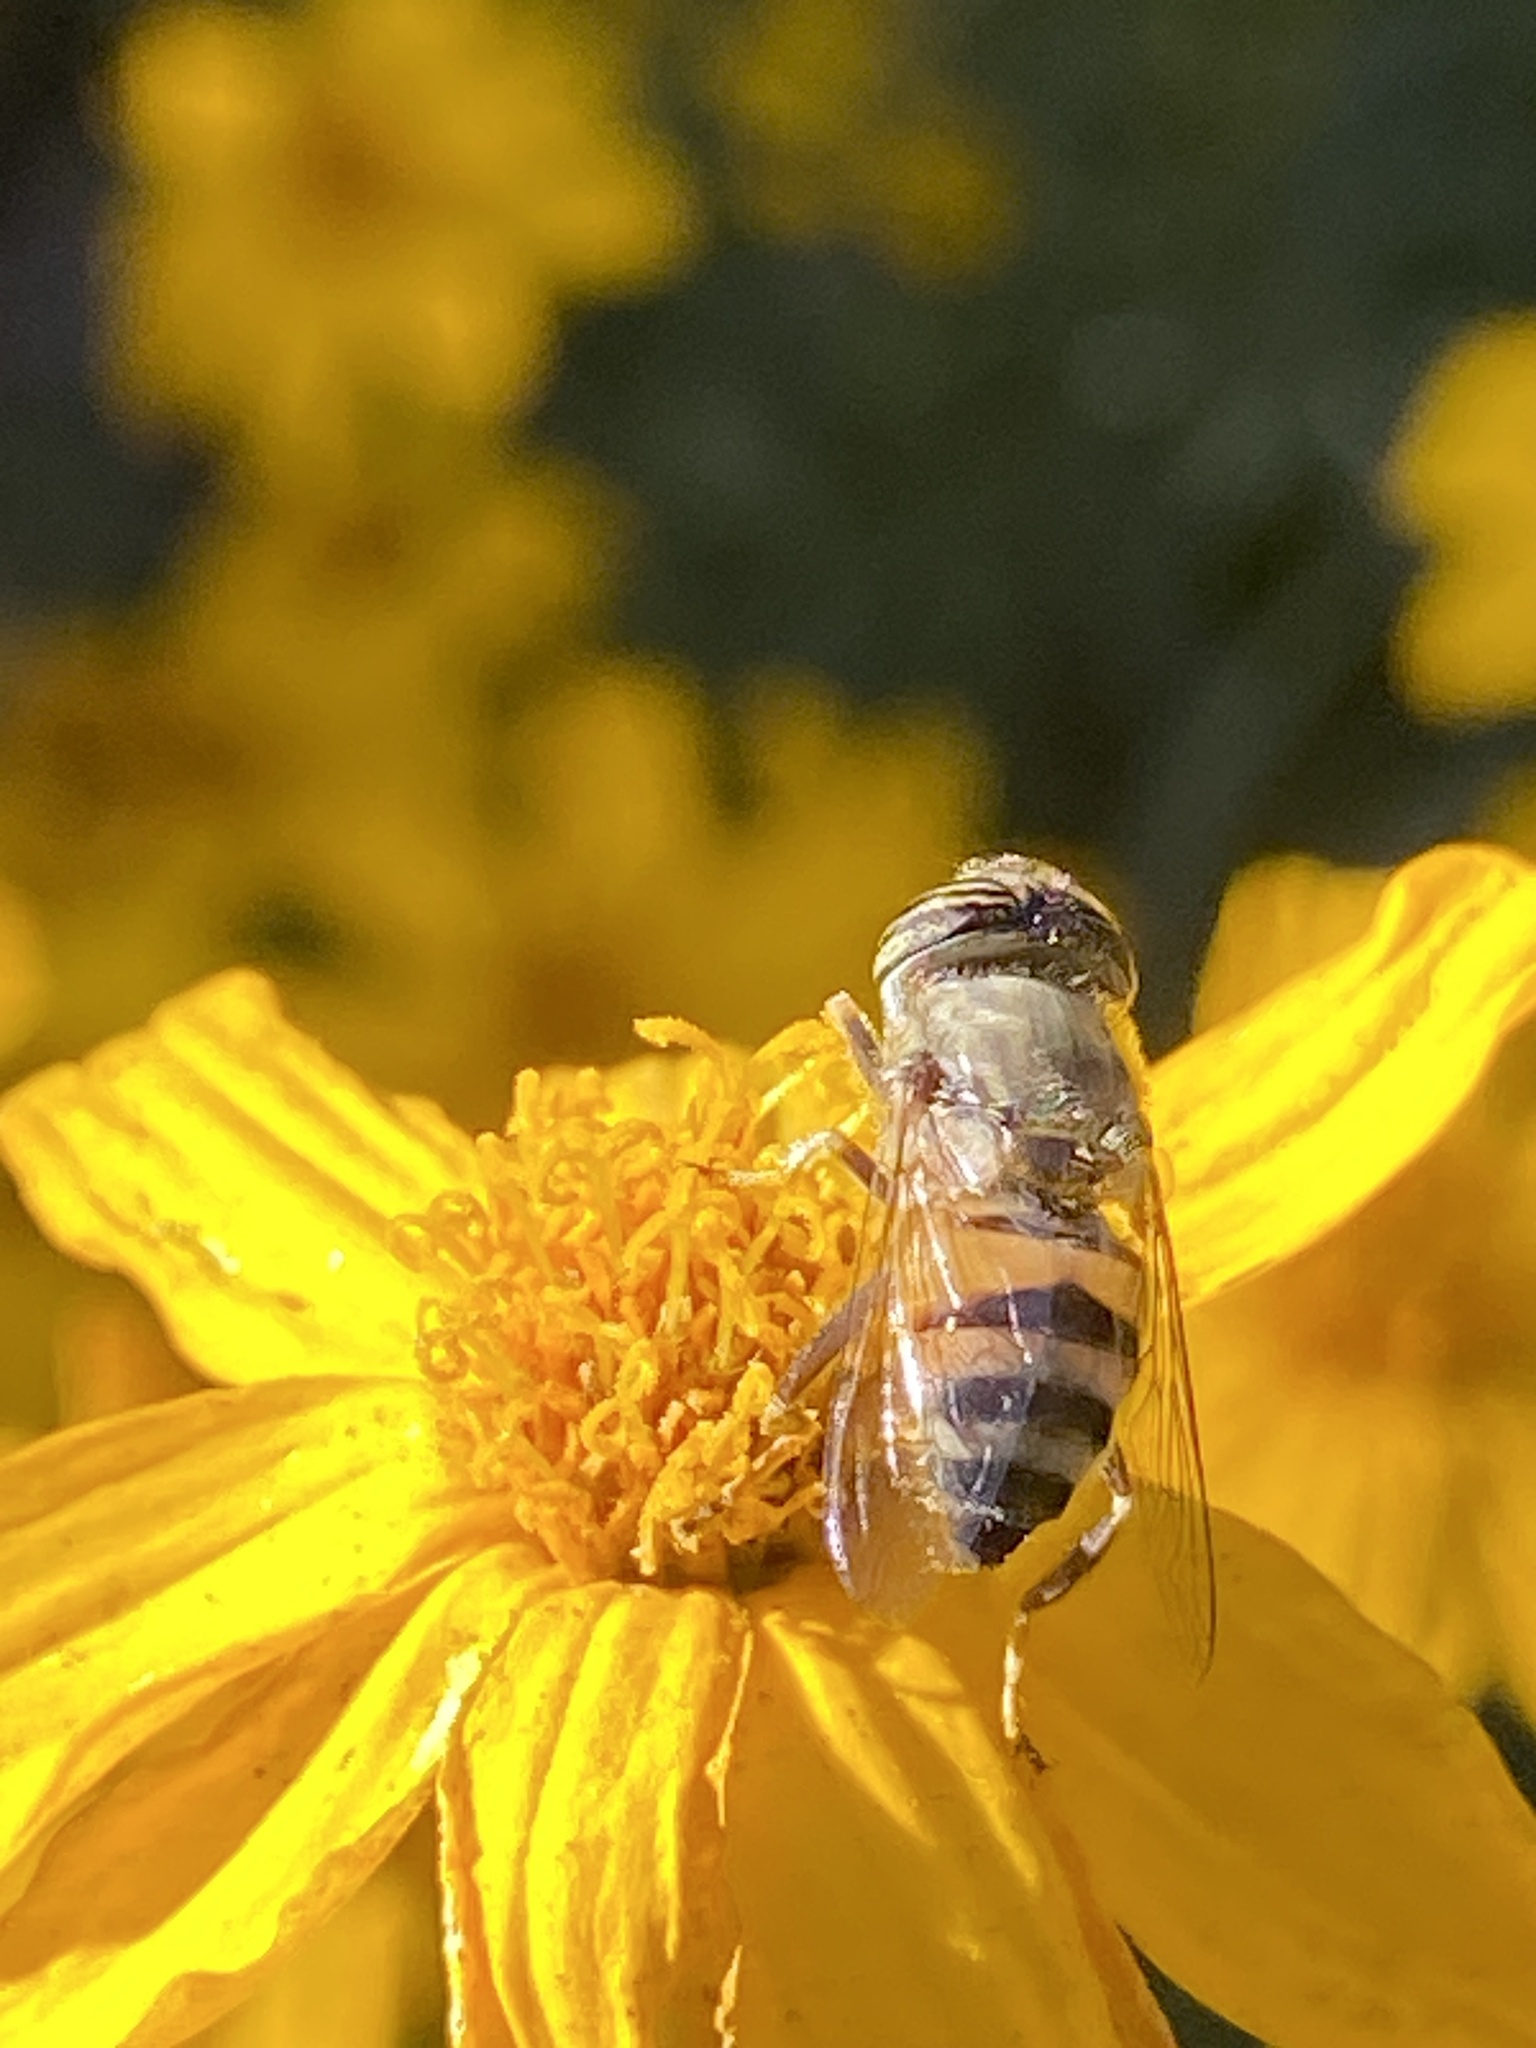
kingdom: Animalia
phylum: Arthropoda
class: Insecta
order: Diptera
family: Syrphidae
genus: Eristalinus
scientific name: Eristalinus taeniops
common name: Syrphid fly
